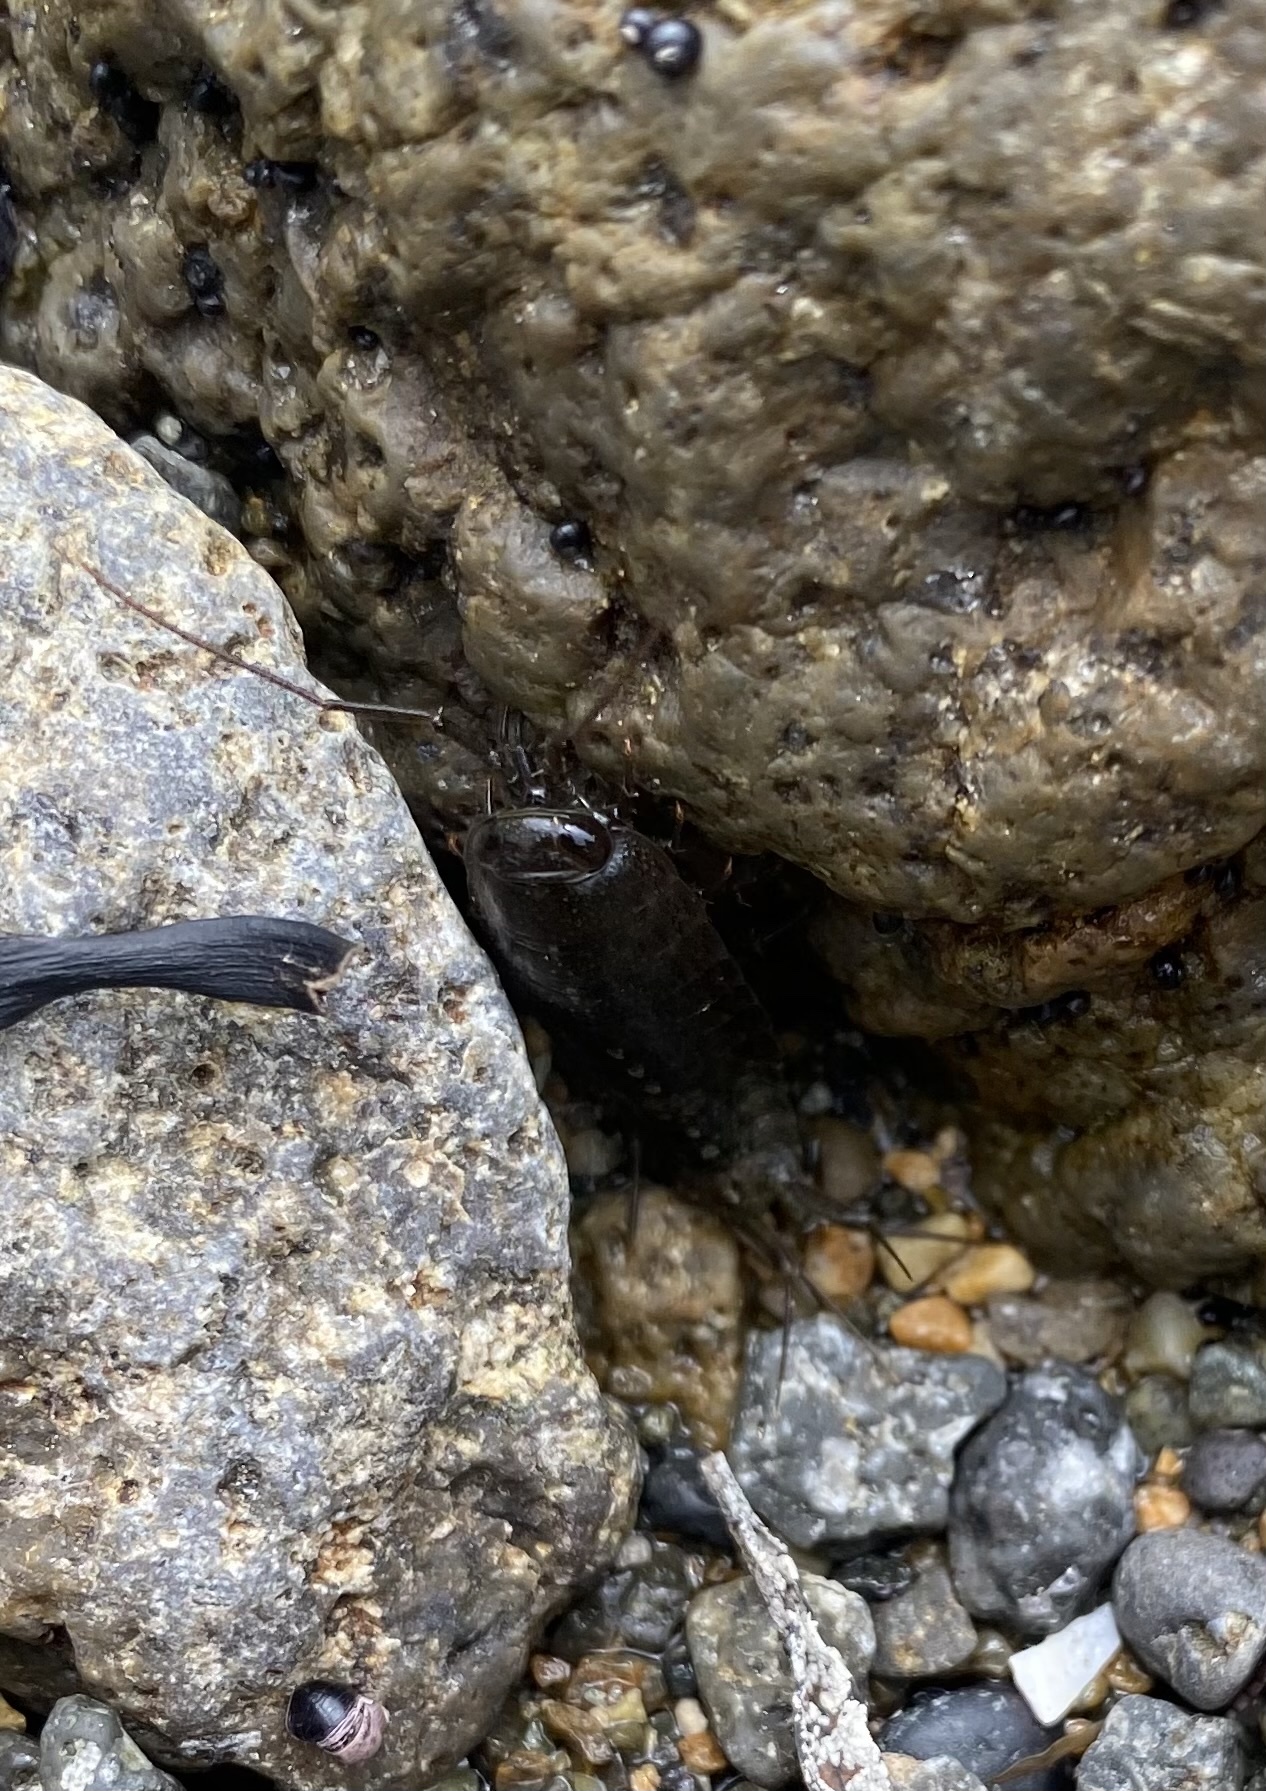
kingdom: Animalia
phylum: Arthropoda
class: Malacostraca
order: Isopoda
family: Ligiidae
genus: Ligia
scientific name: Ligia cinerascens
